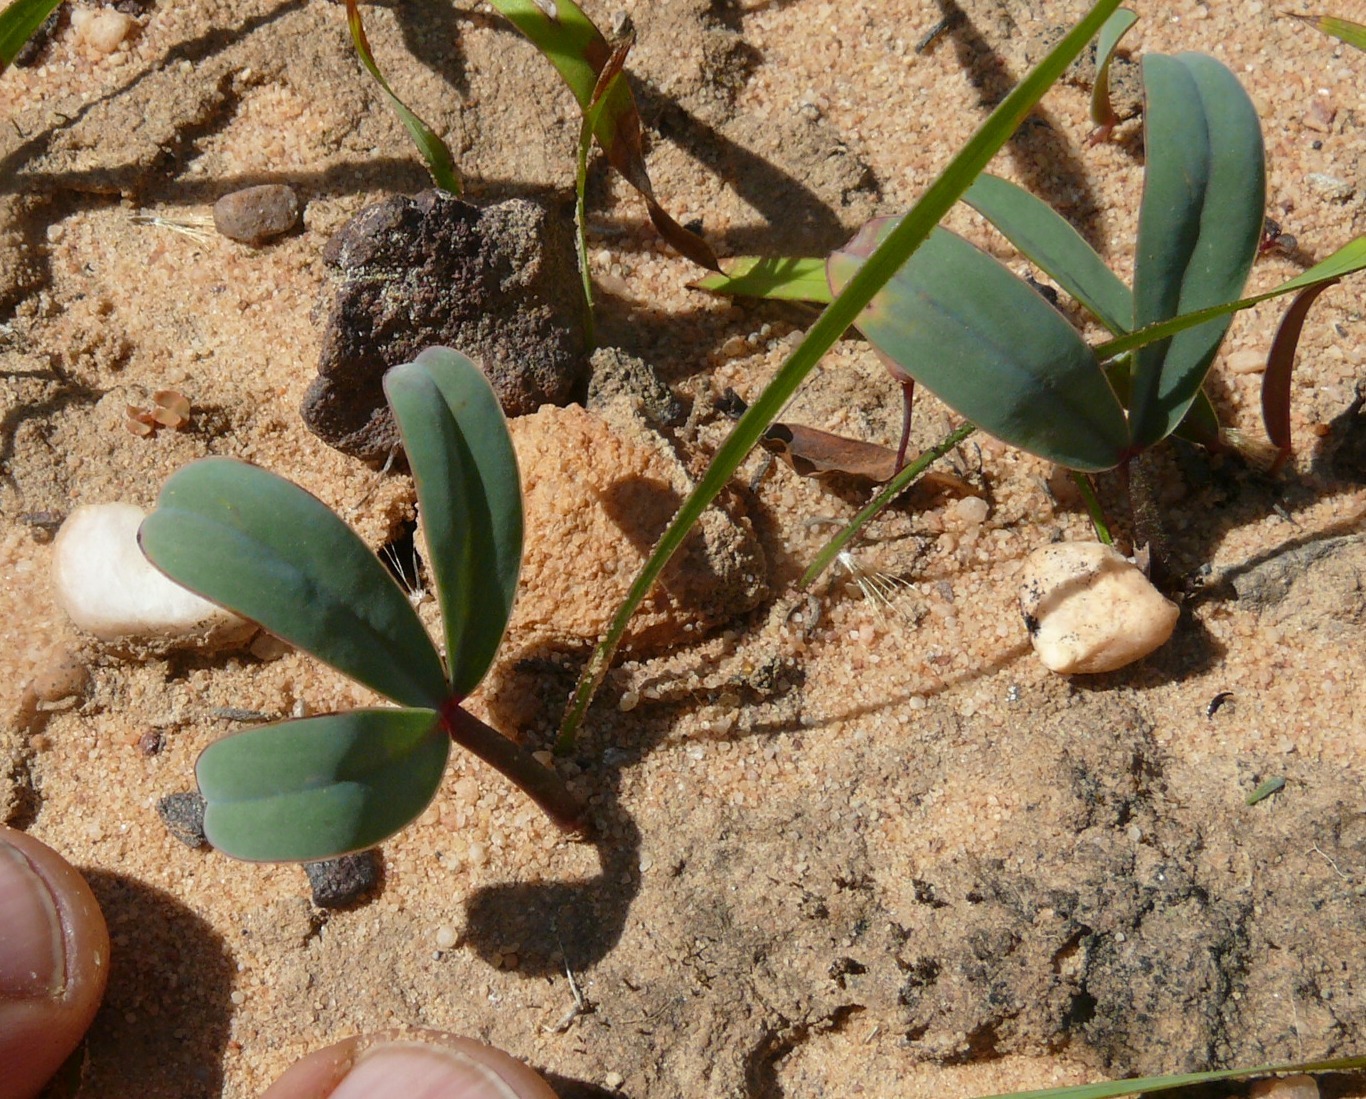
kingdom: Plantae
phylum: Tracheophyta
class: Magnoliopsida
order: Oxalidales
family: Oxalidaceae
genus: Oxalis
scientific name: Oxalis flava
